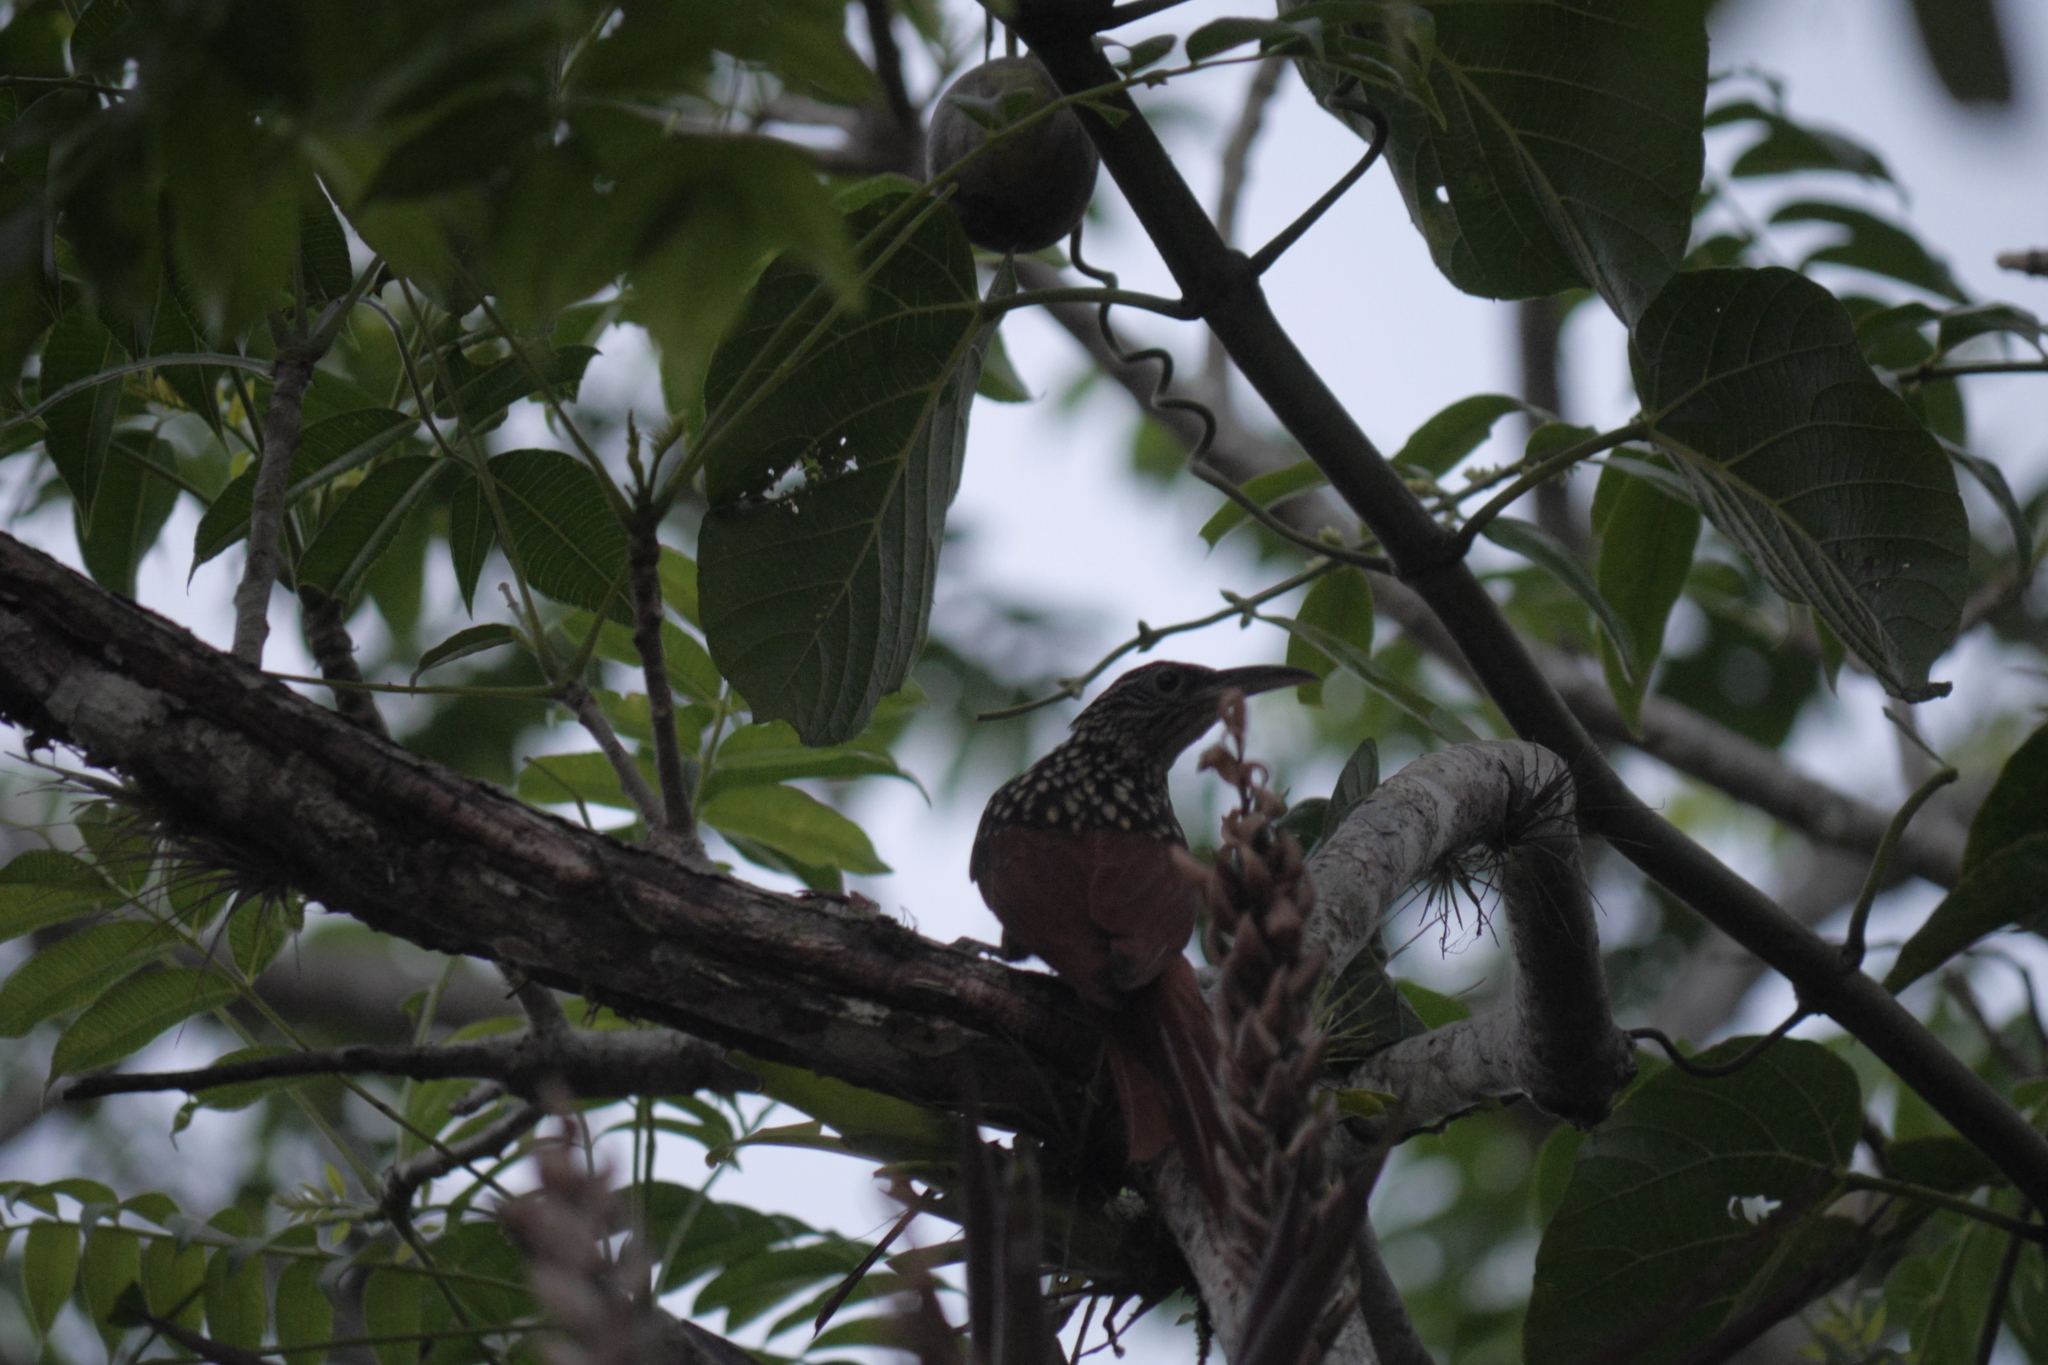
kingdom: Animalia
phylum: Chordata
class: Aves
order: Passeriformes
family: Furnariidae
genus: Xiphorhynchus
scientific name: Xiphorhynchus lachrymosus
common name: Black-striped woodcreeper
